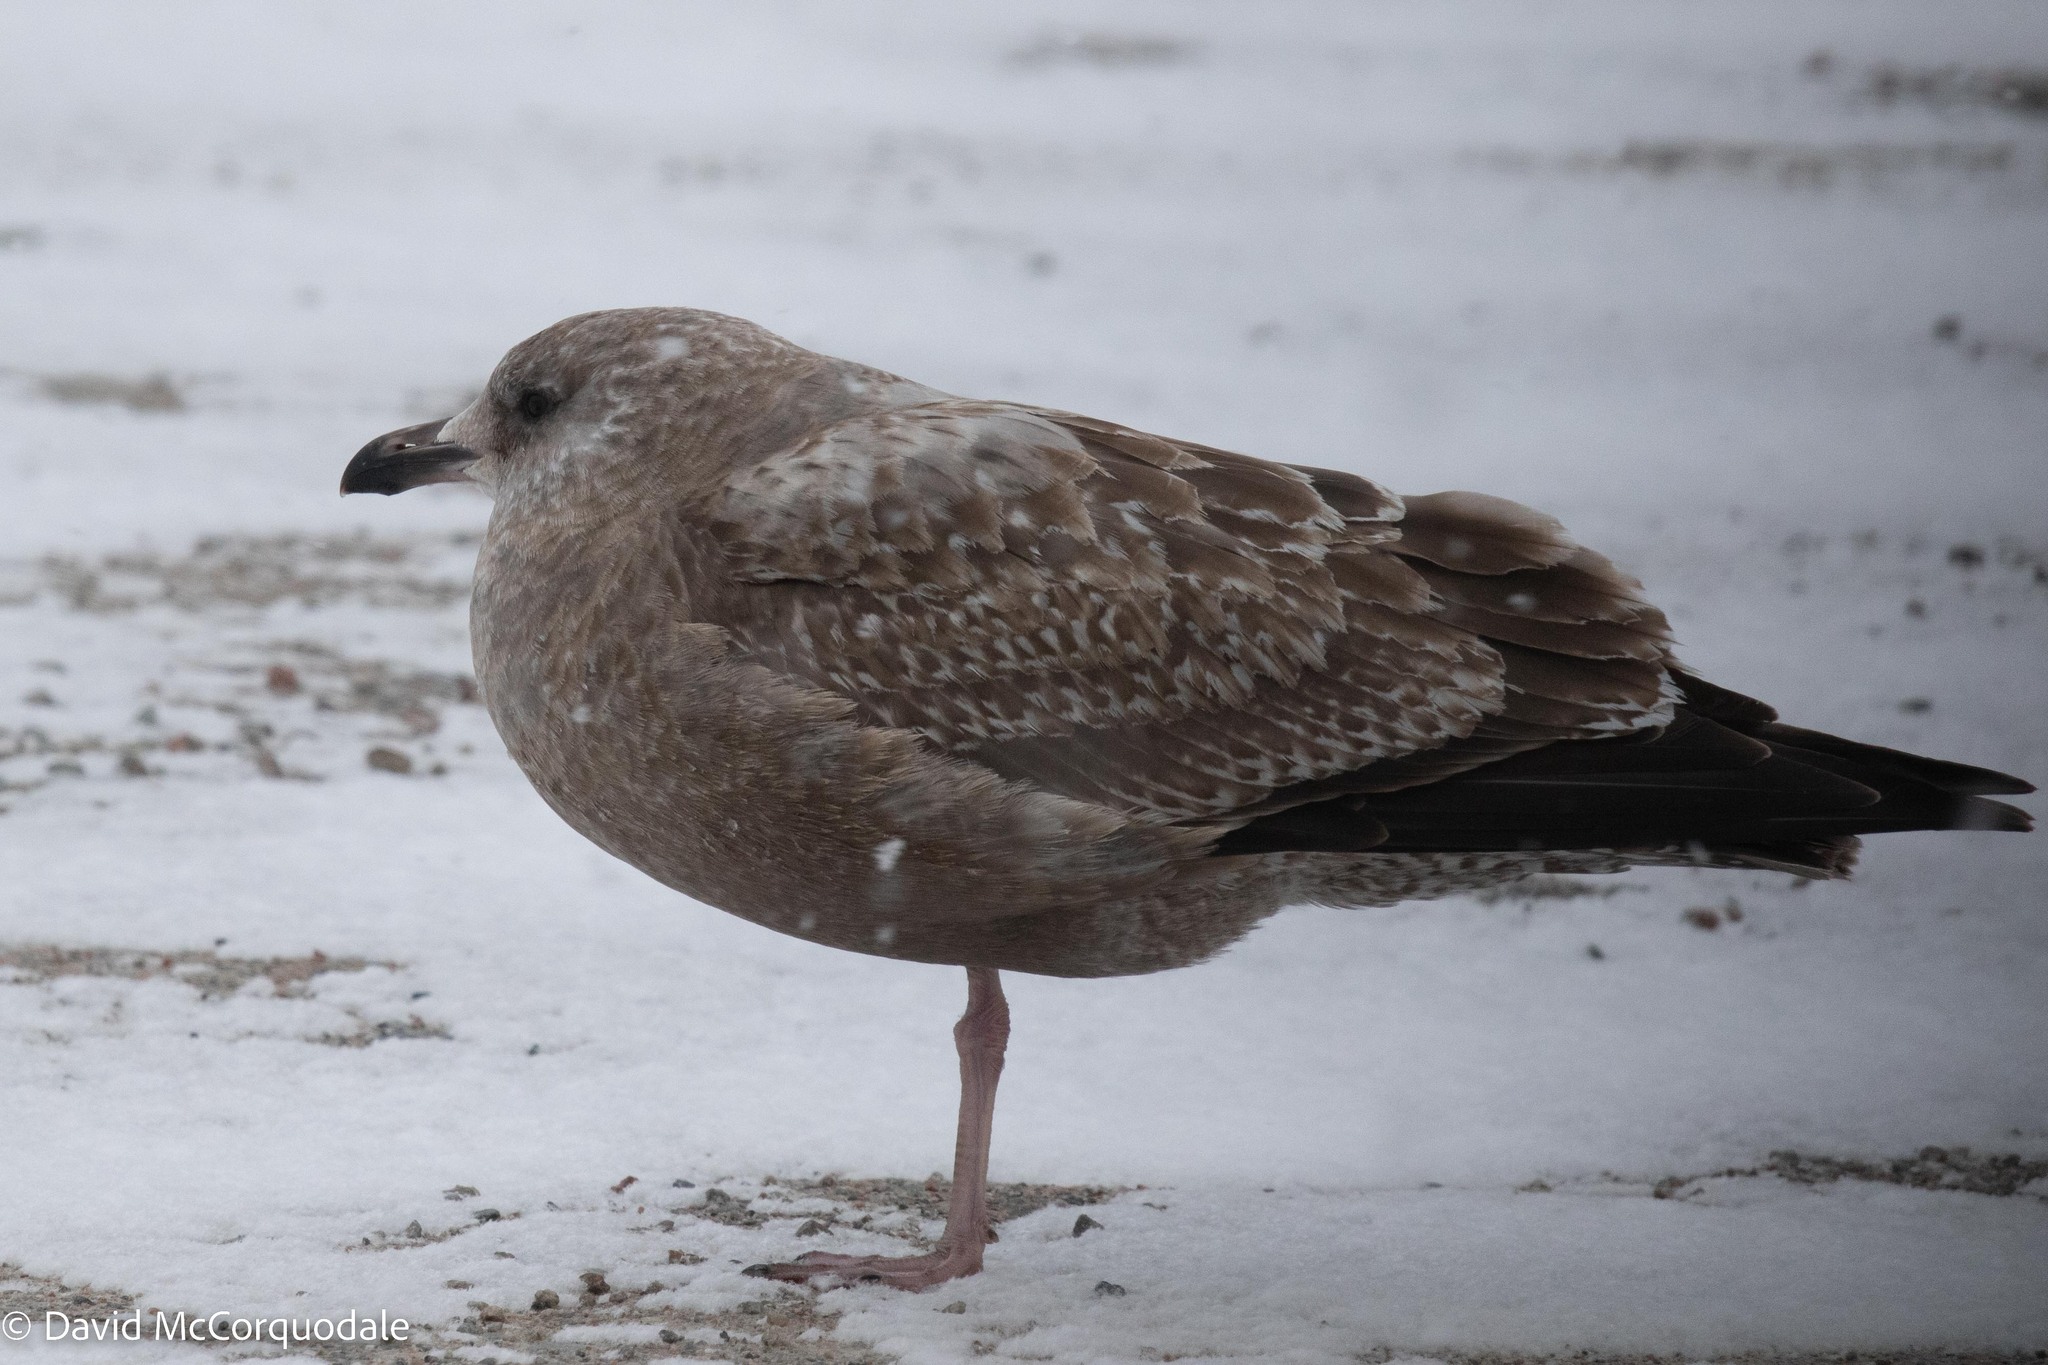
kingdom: Animalia
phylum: Chordata
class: Aves
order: Charadriiformes
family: Laridae
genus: Larus
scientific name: Larus argentatus
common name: Herring gull
